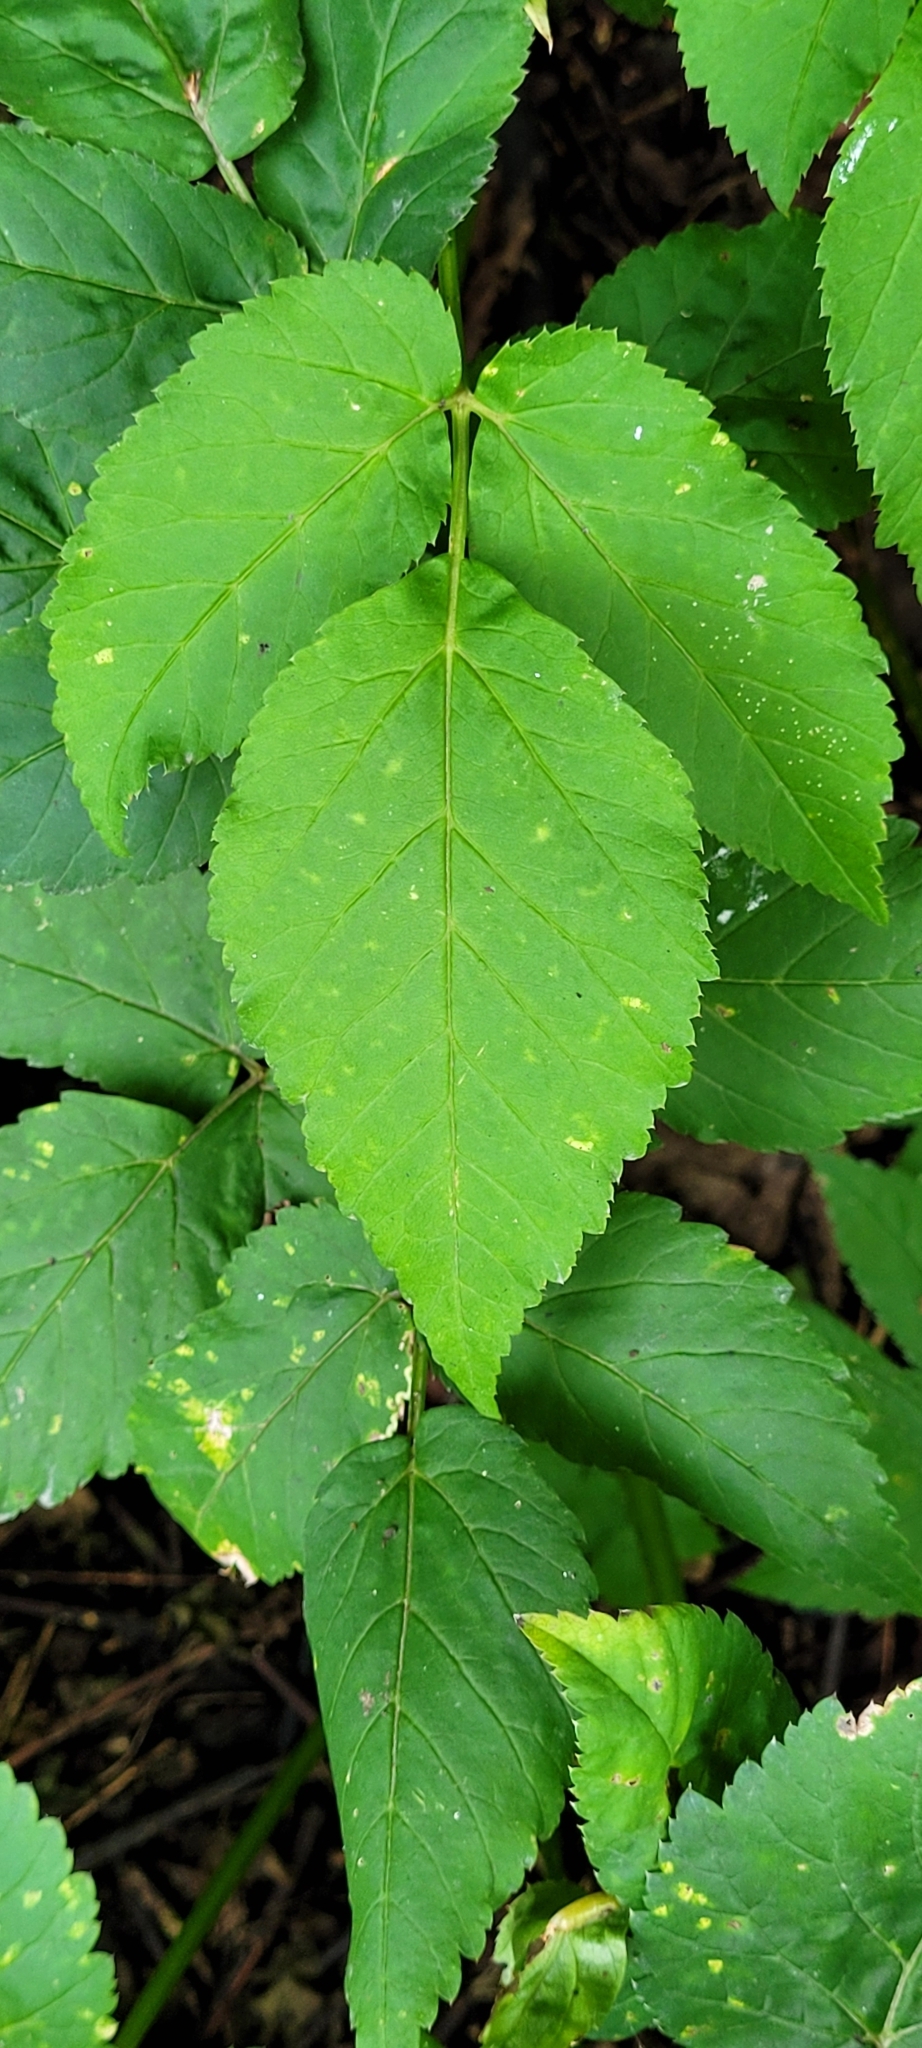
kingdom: Plantae
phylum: Tracheophyta
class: Magnoliopsida
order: Apiales
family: Apiaceae
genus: Aegopodium
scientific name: Aegopodium podagraria
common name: Ground-elder
